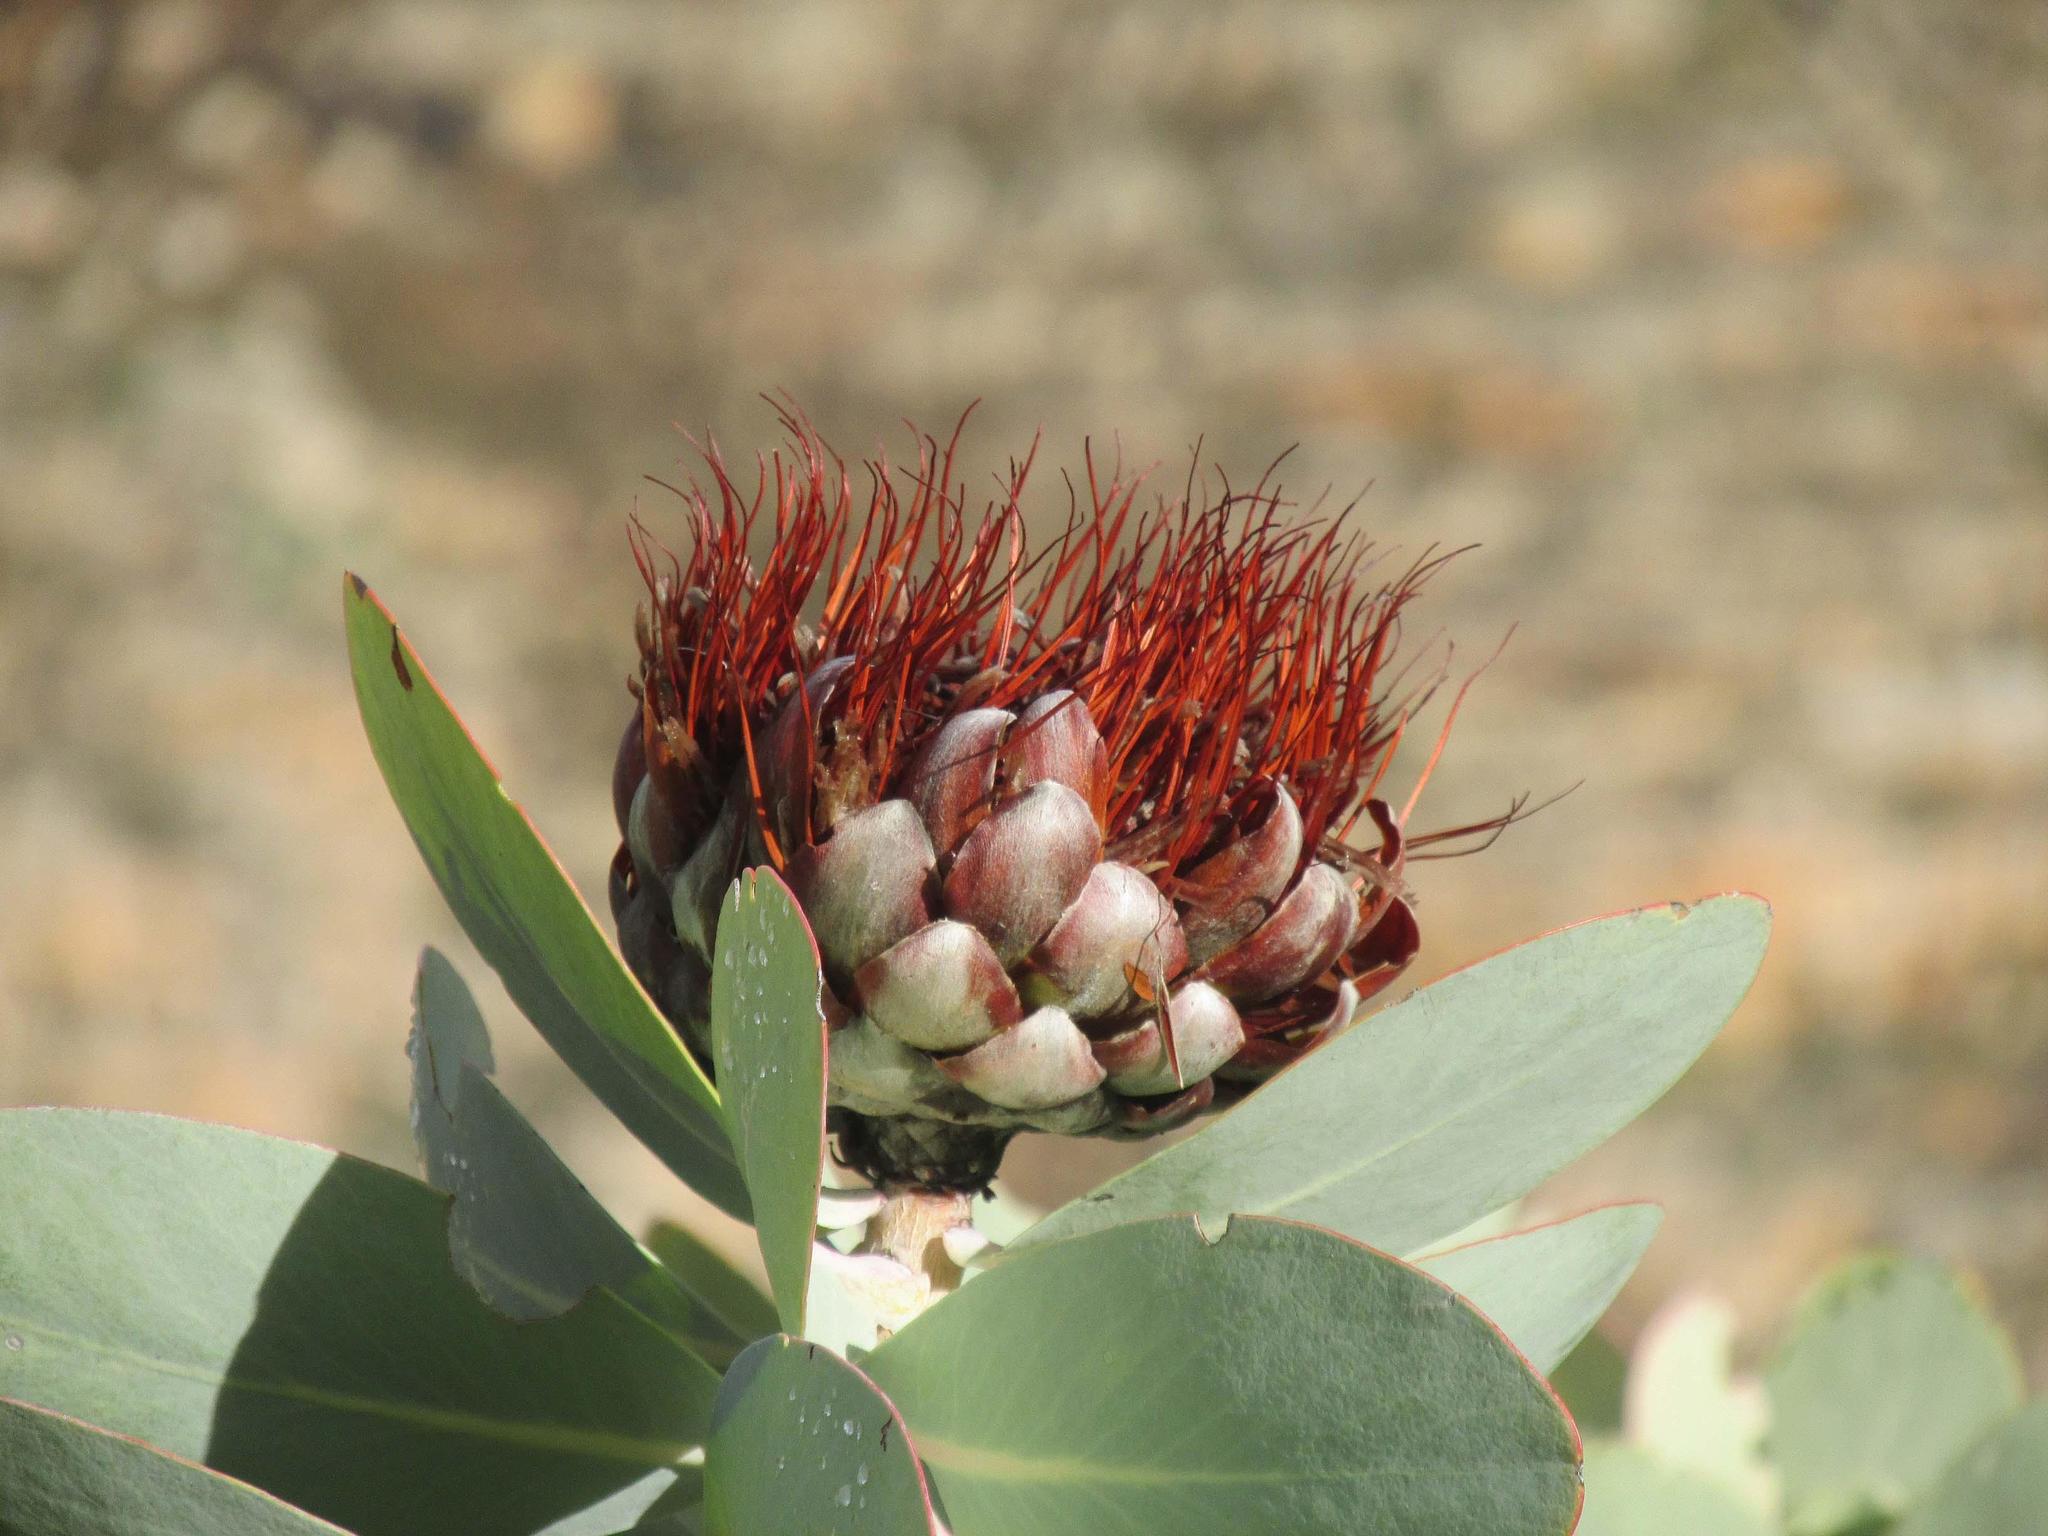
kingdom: Plantae
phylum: Tracheophyta
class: Magnoliopsida
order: Proteales
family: Proteaceae
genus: Protea
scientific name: Protea nitida
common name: Tree protea
